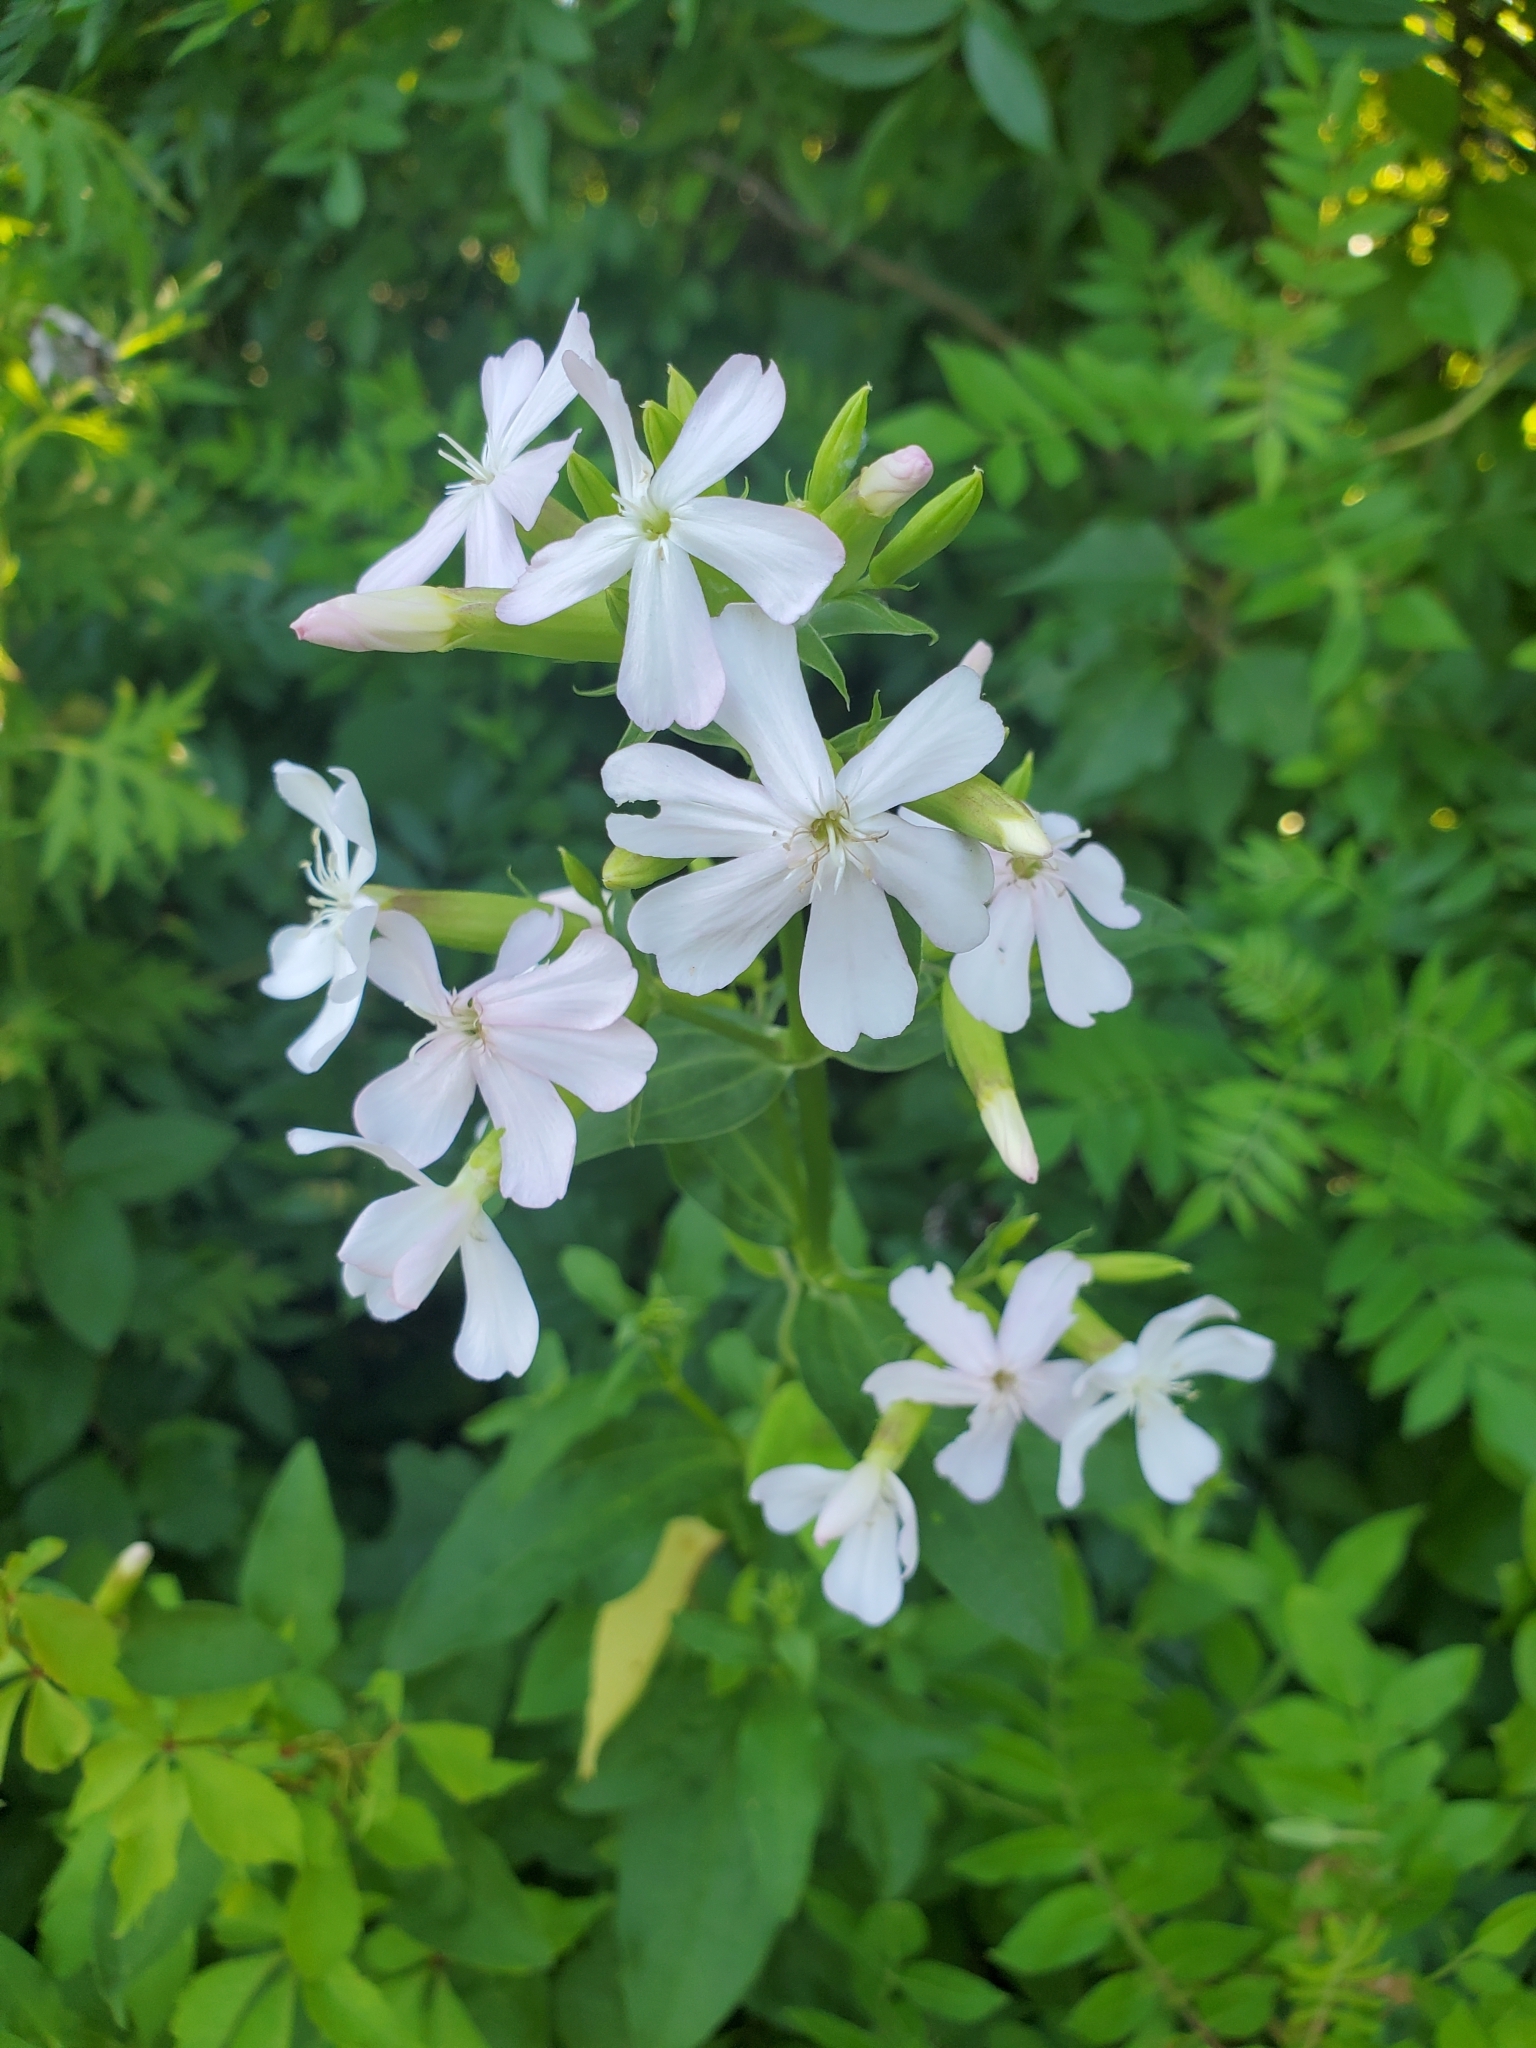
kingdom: Plantae
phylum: Tracheophyta
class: Magnoliopsida
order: Caryophyllales
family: Caryophyllaceae
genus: Saponaria
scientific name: Saponaria officinalis
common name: Soapwort
